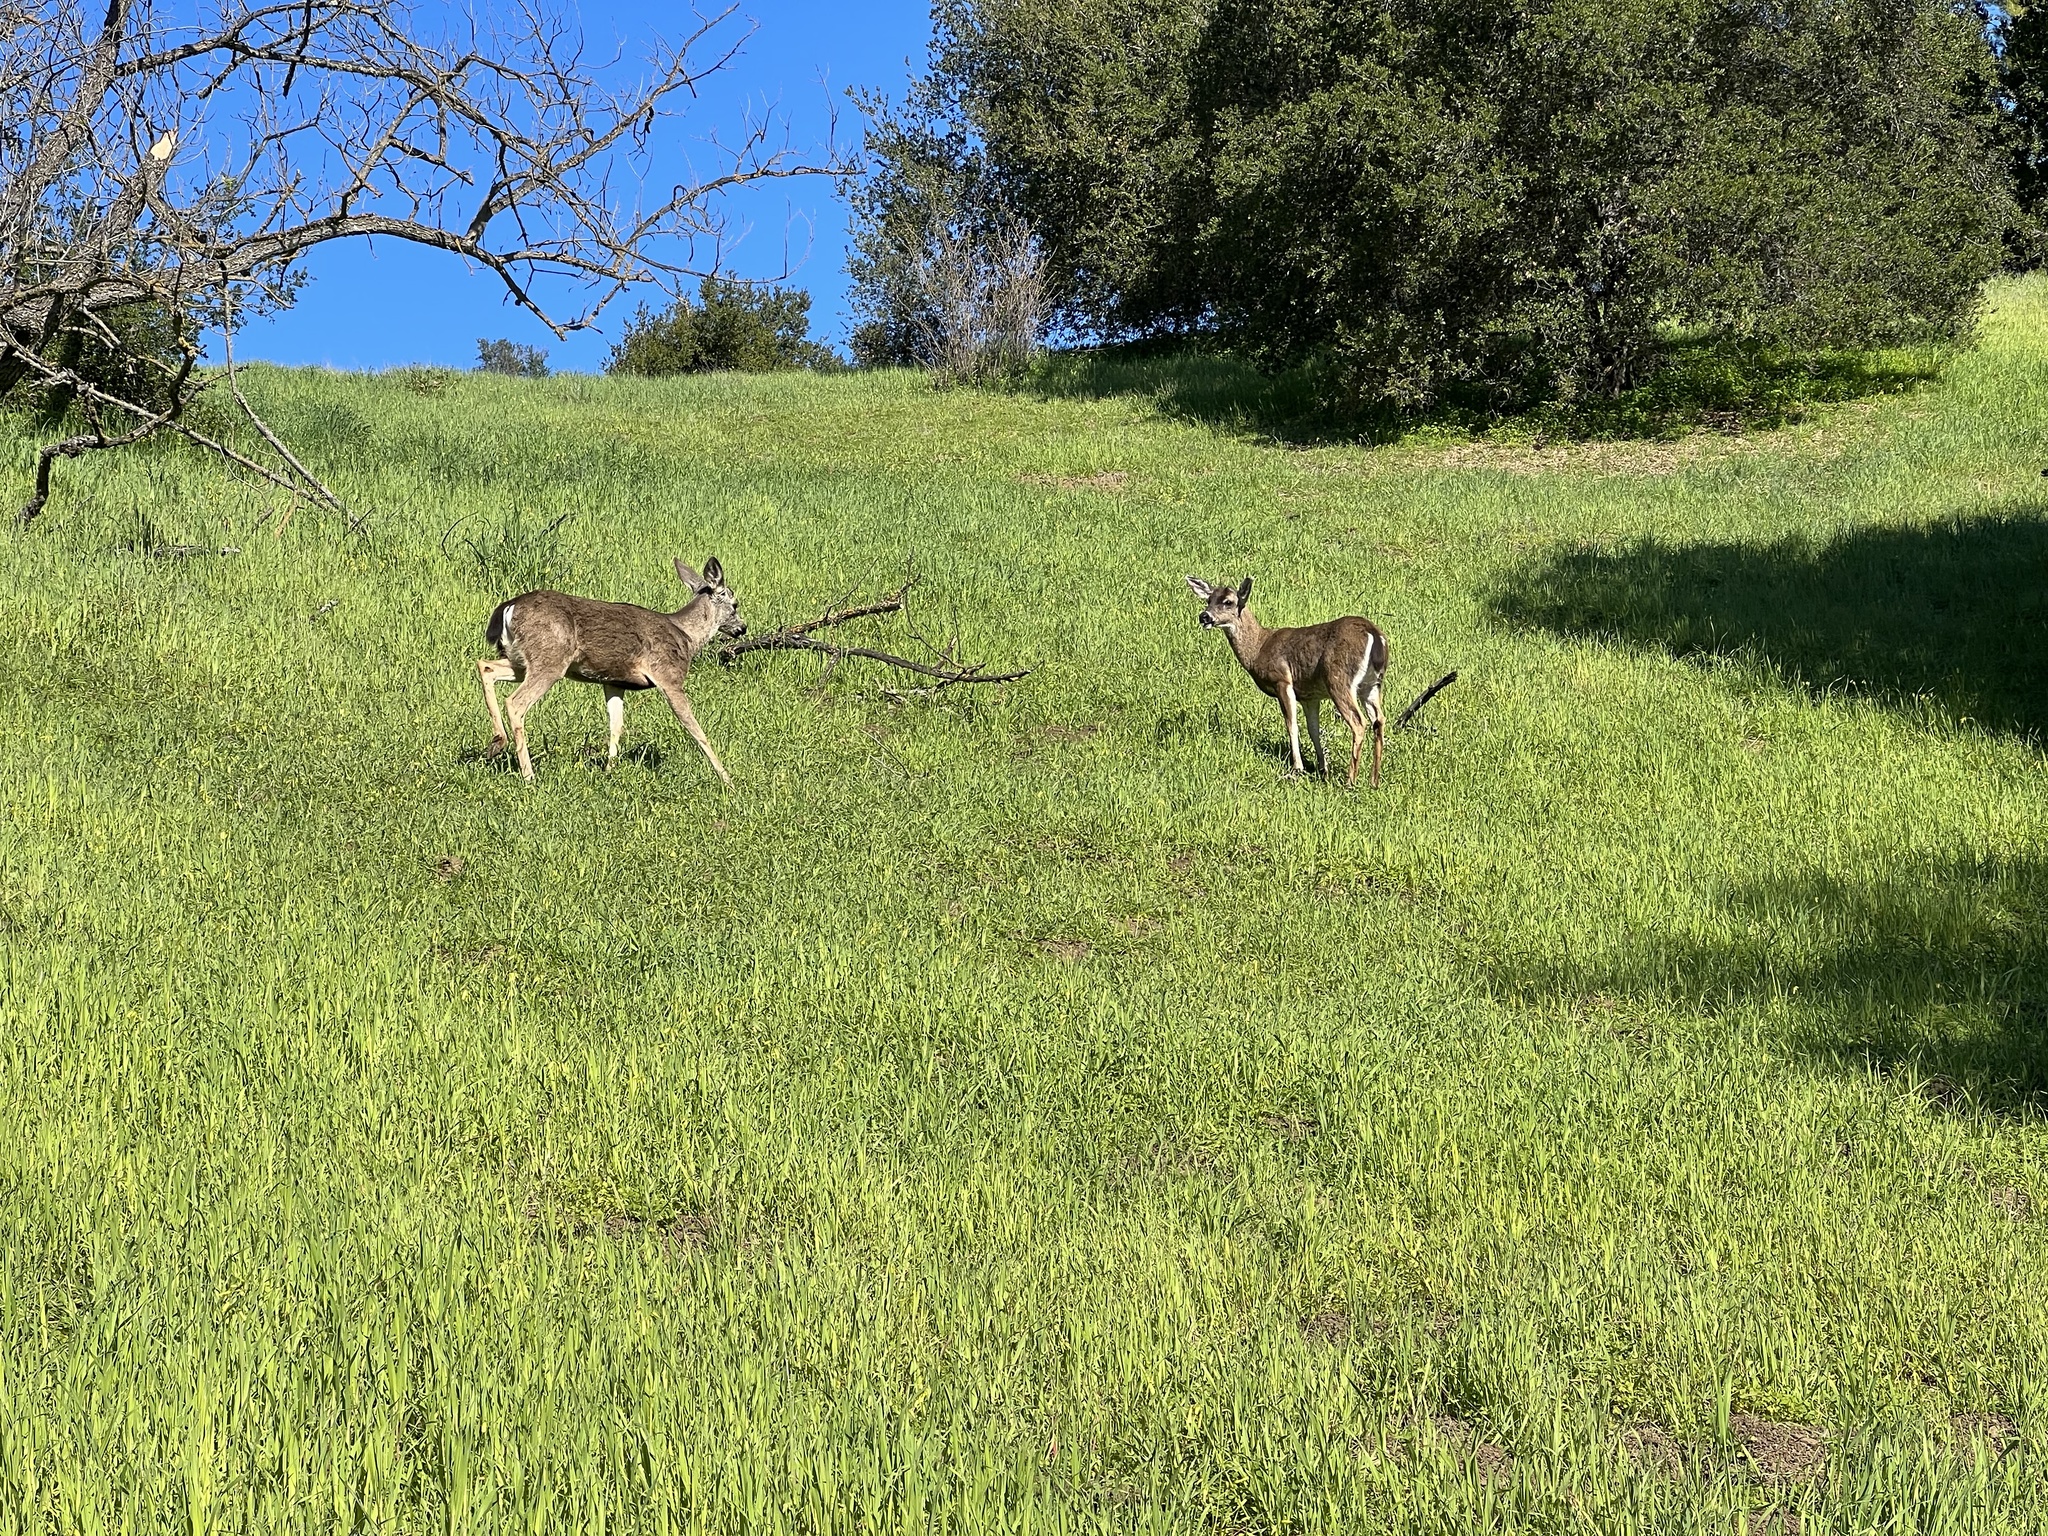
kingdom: Animalia
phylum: Chordata
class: Mammalia
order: Artiodactyla
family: Cervidae
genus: Odocoileus
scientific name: Odocoileus hemionus
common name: Mule deer
